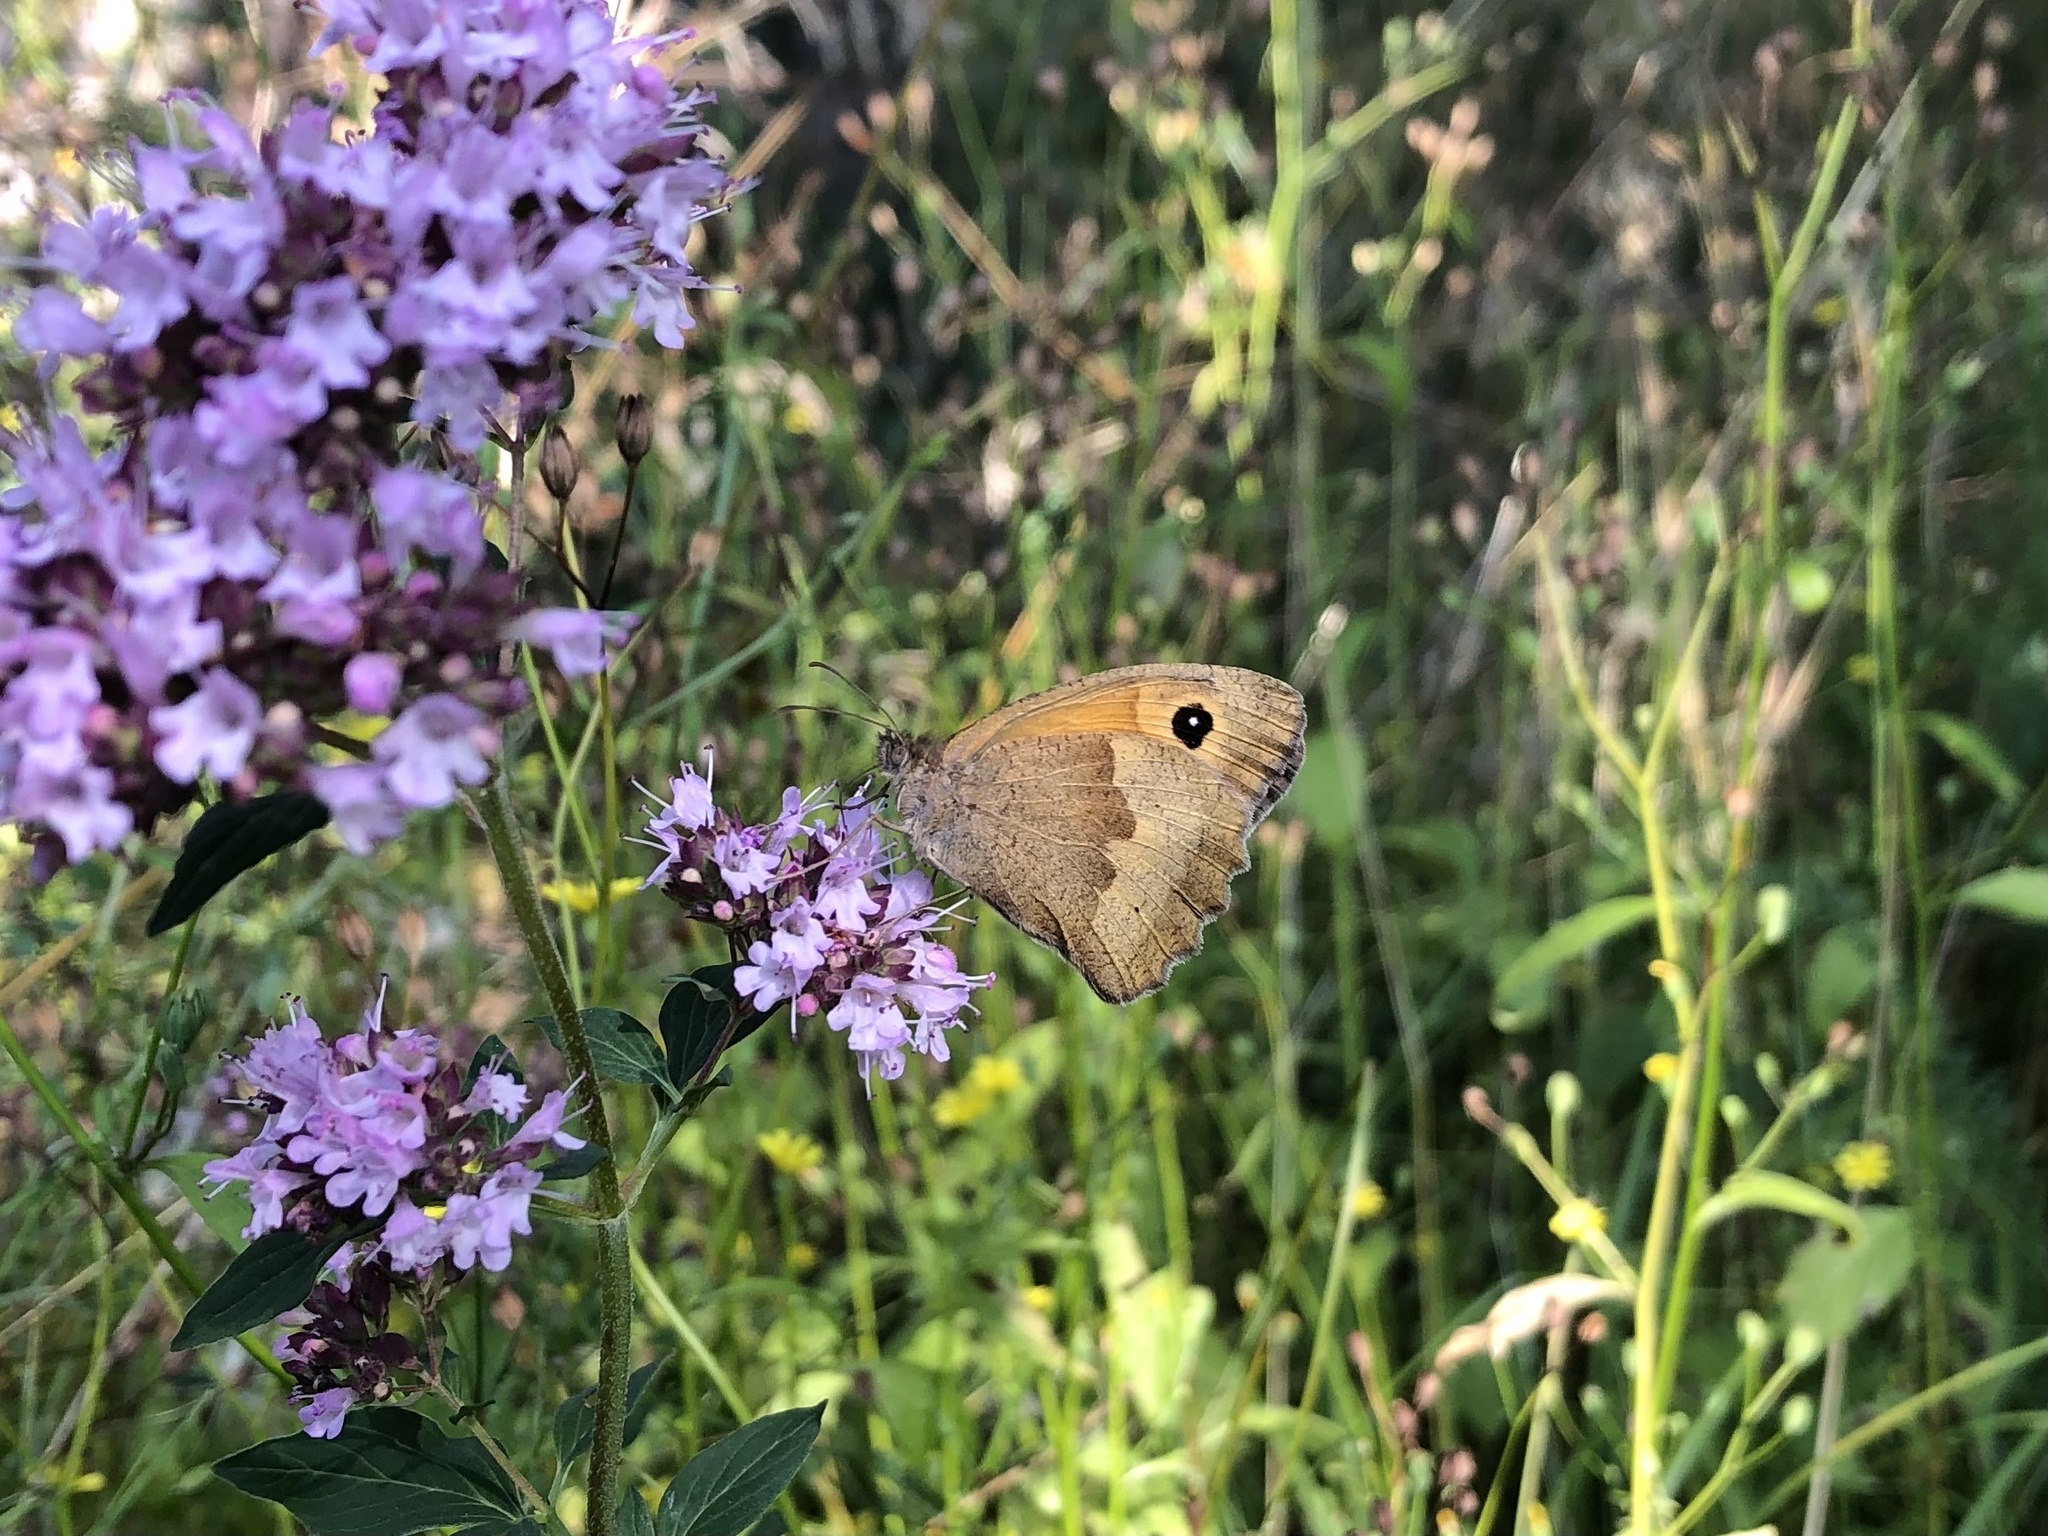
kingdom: Animalia
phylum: Arthropoda
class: Insecta
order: Lepidoptera
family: Nymphalidae
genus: Maniola
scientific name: Maniola jurtina
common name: Meadow brown
